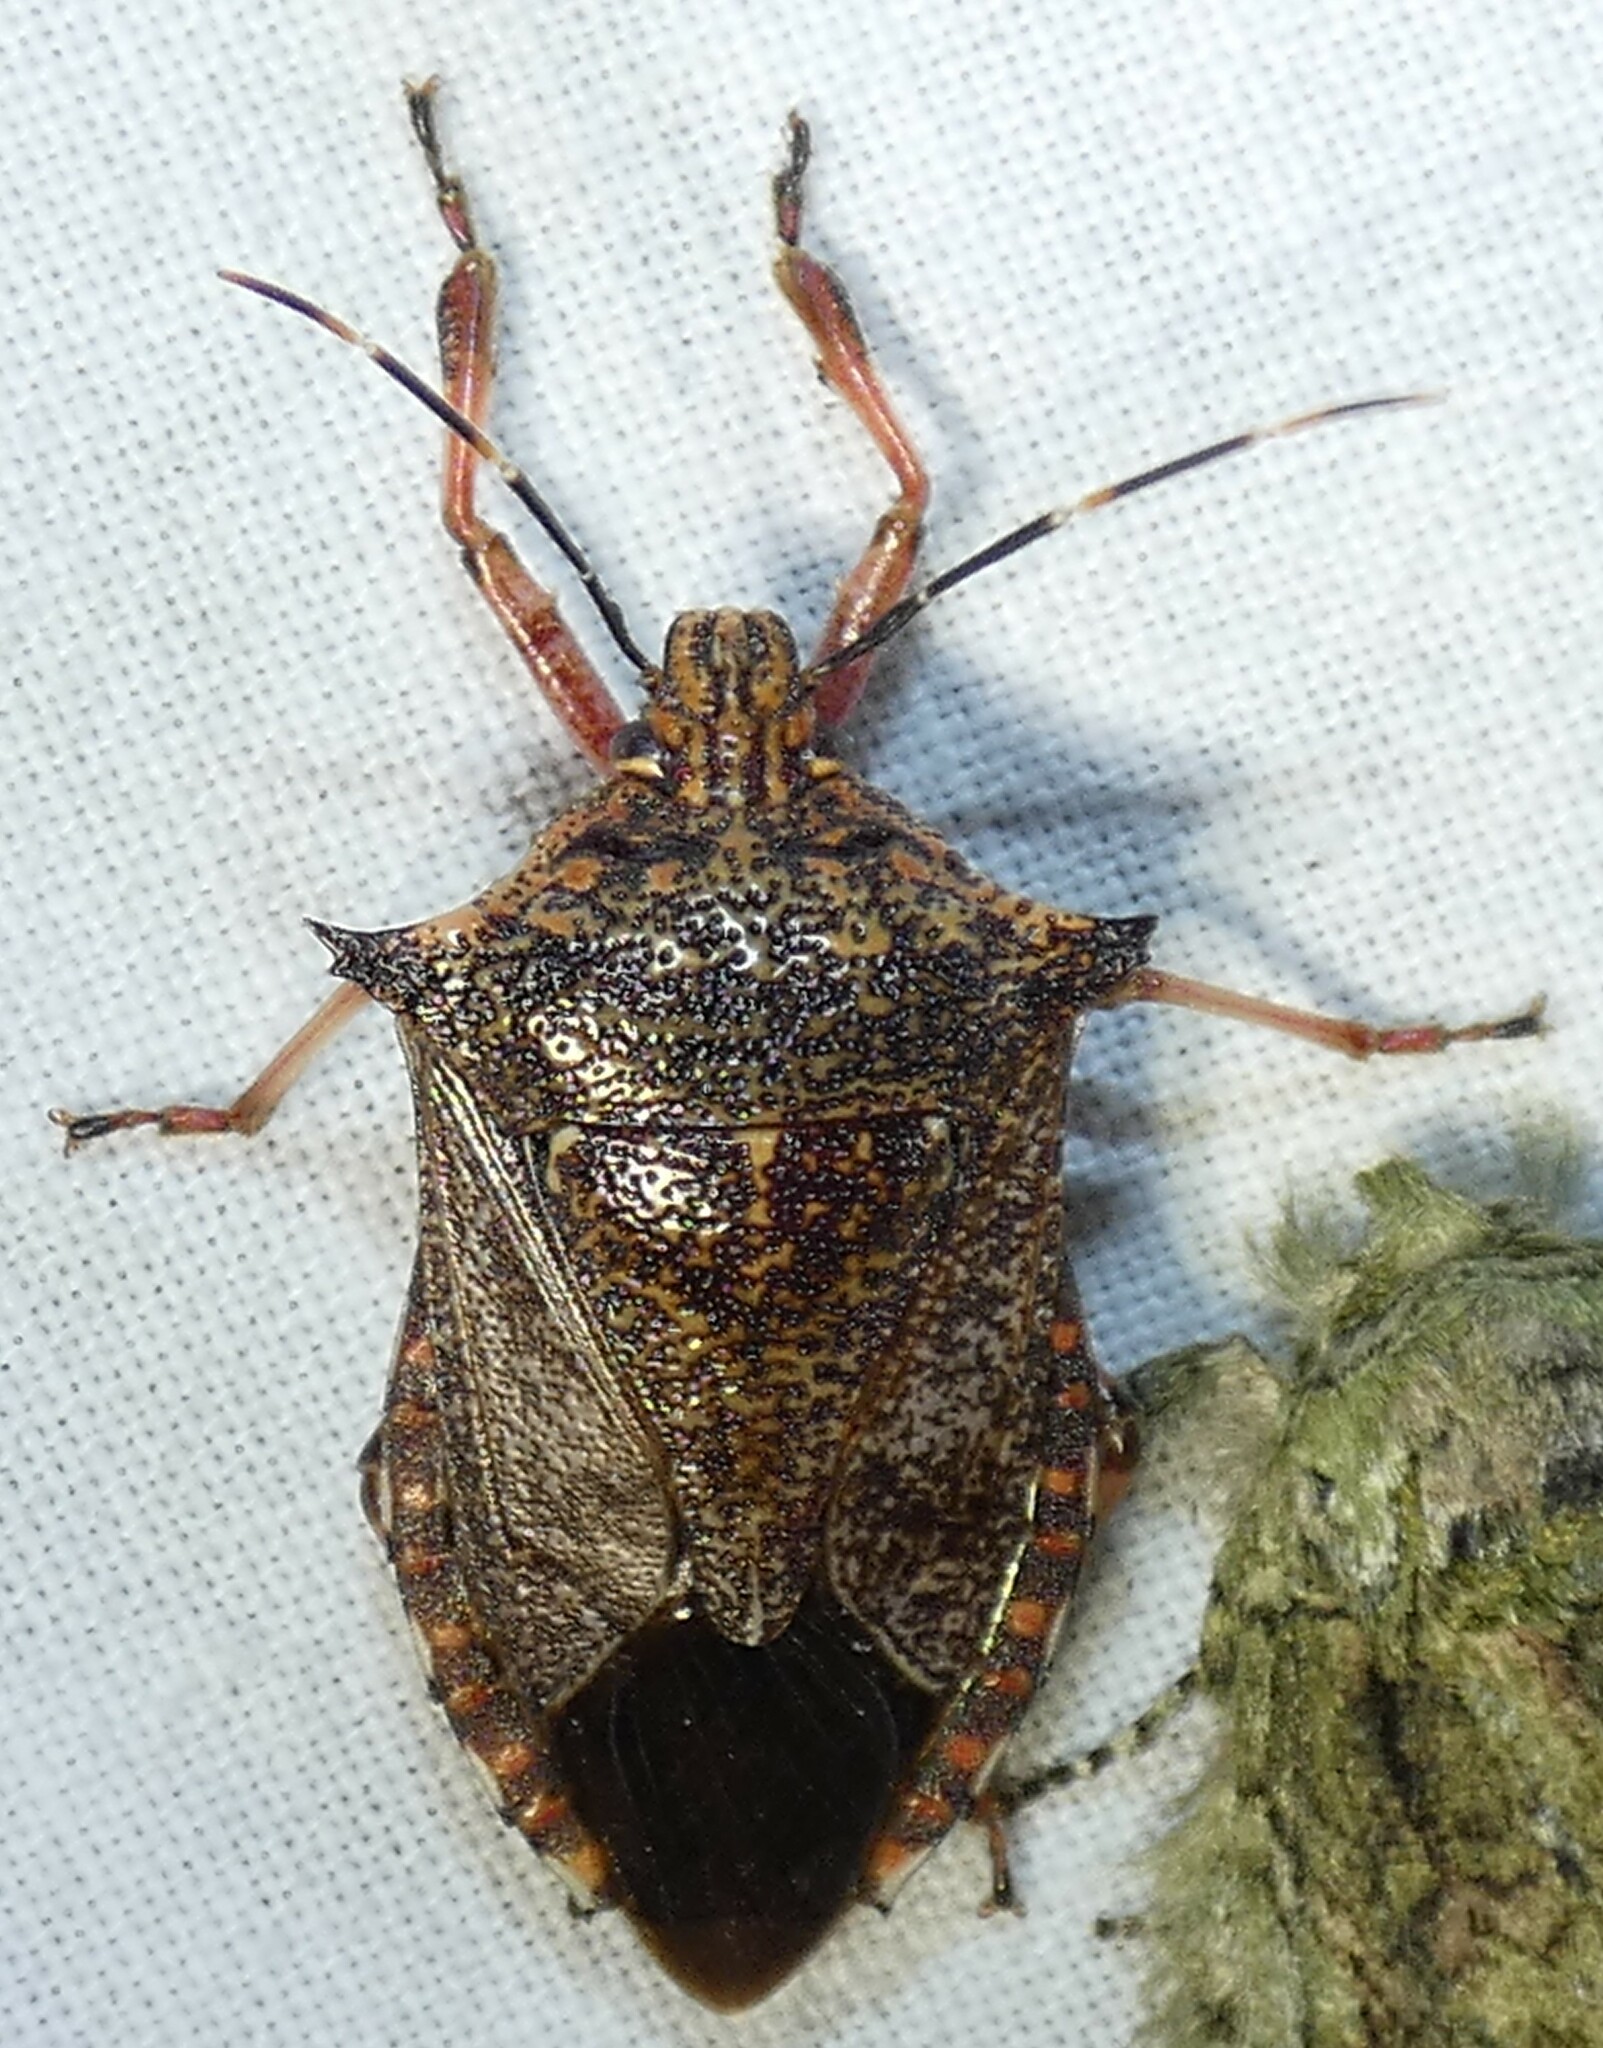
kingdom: Animalia
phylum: Arthropoda
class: Insecta
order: Hemiptera
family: Pentatomidae
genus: Alcaeorrhynchus
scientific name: Alcaeorrhynchus grandis
